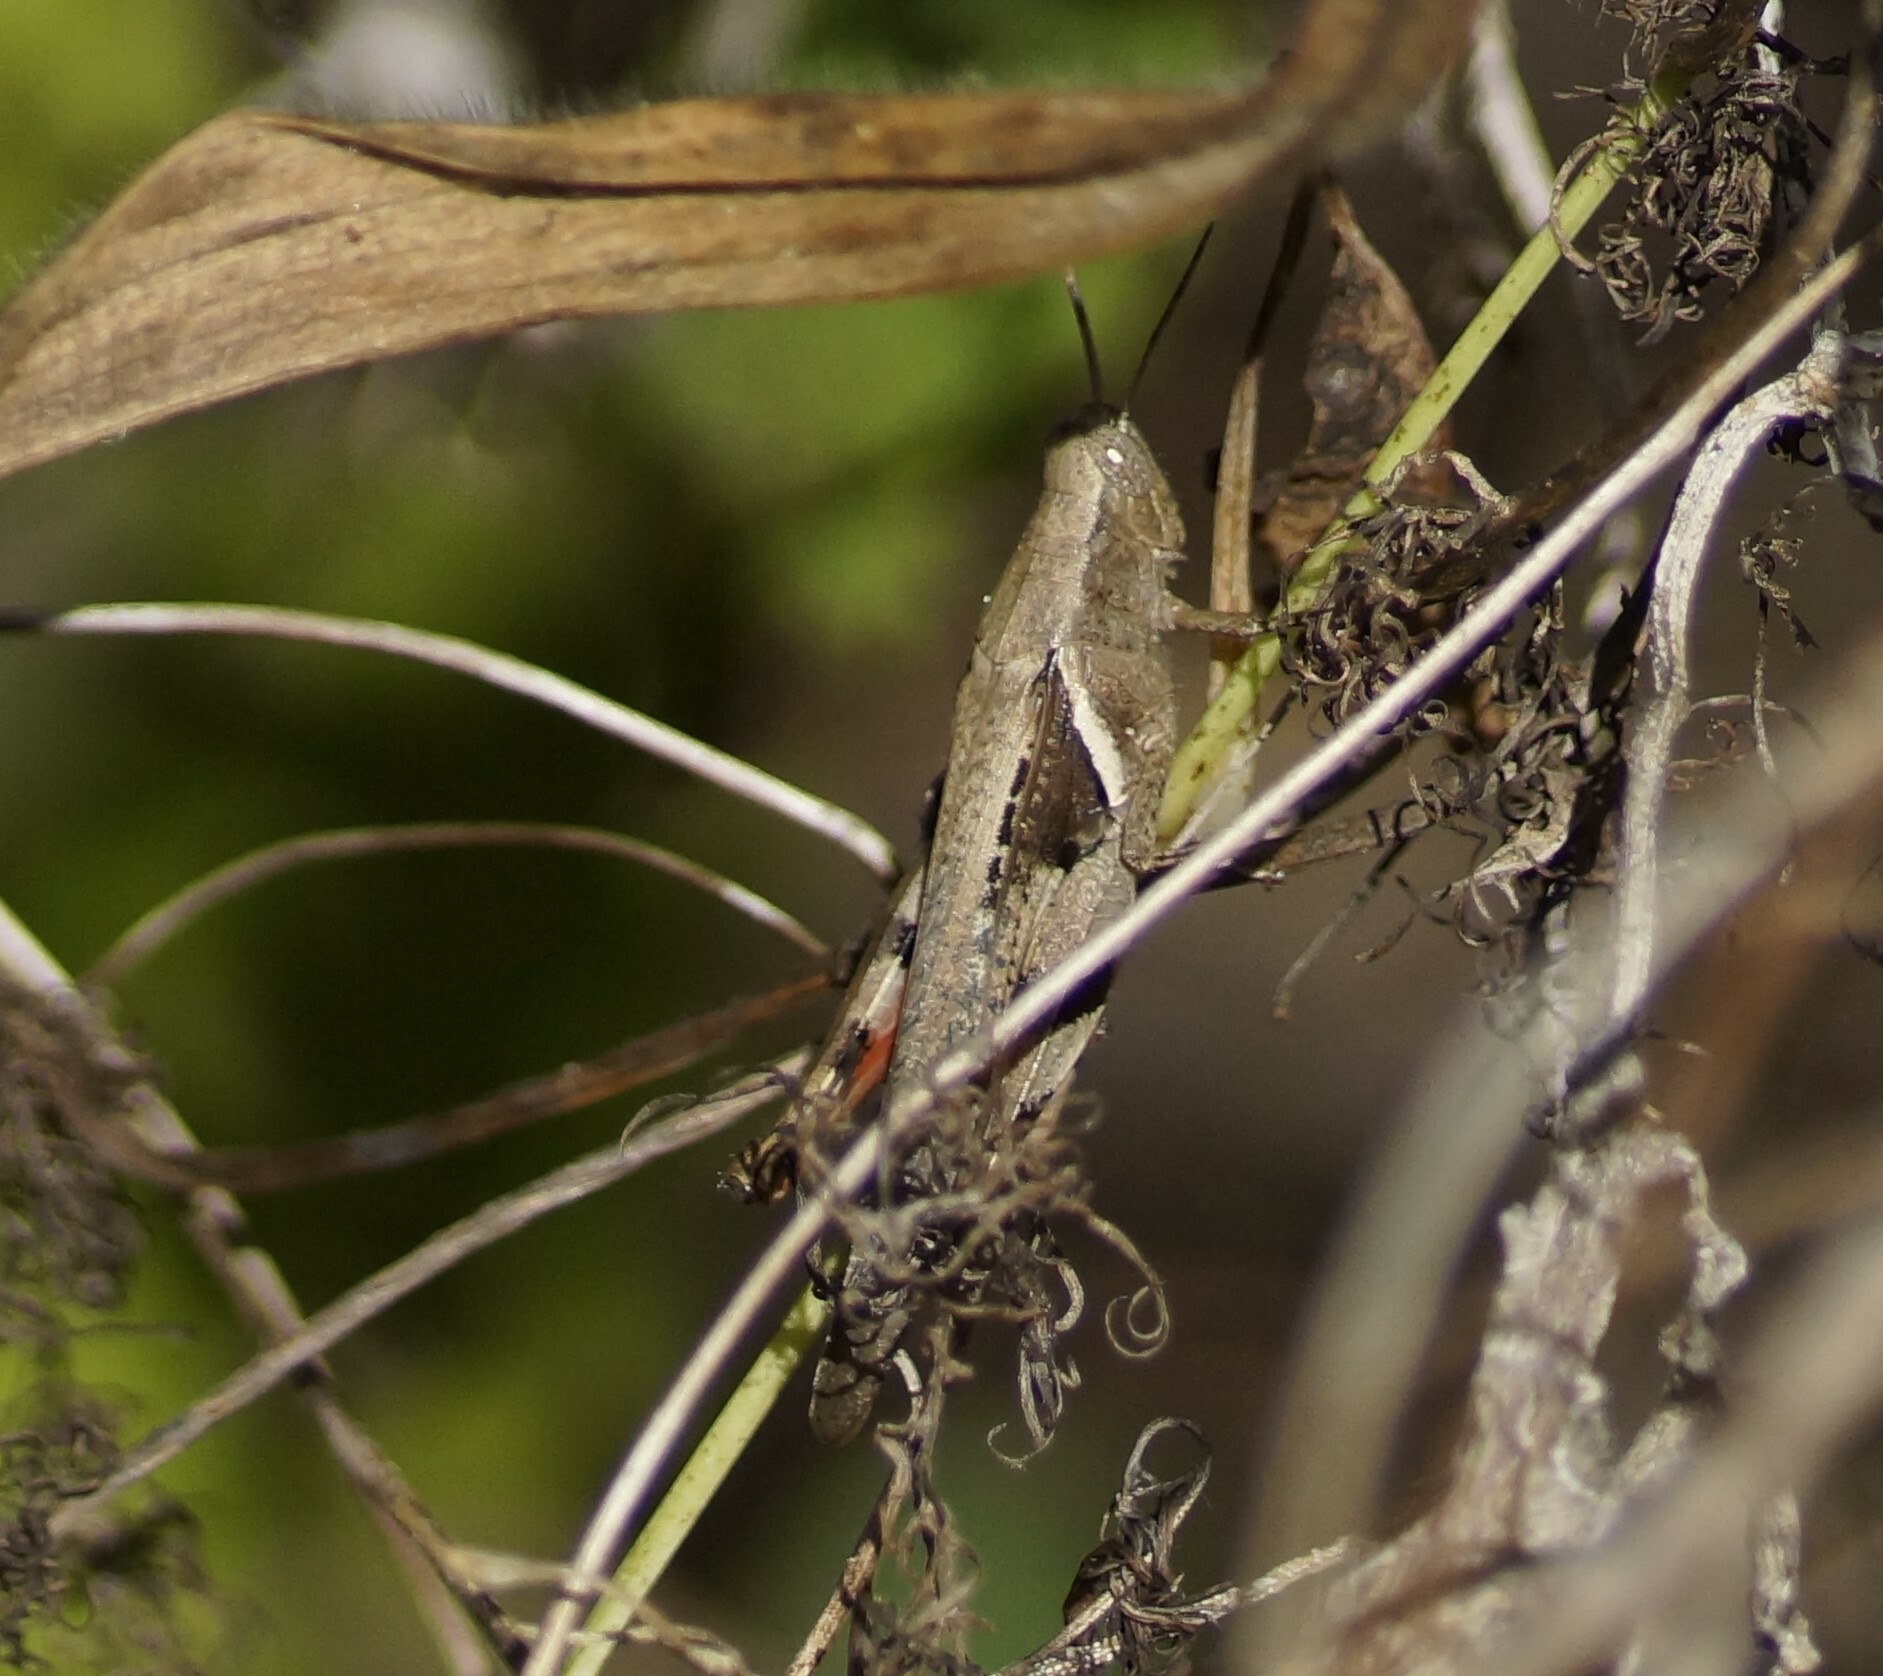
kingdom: Animalia
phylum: Arthropoda
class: Insecta
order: Orthoptera
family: Acrididae
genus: Stenocatantops
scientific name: Stenocatantops angustifrons
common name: Common tropical sharptail
